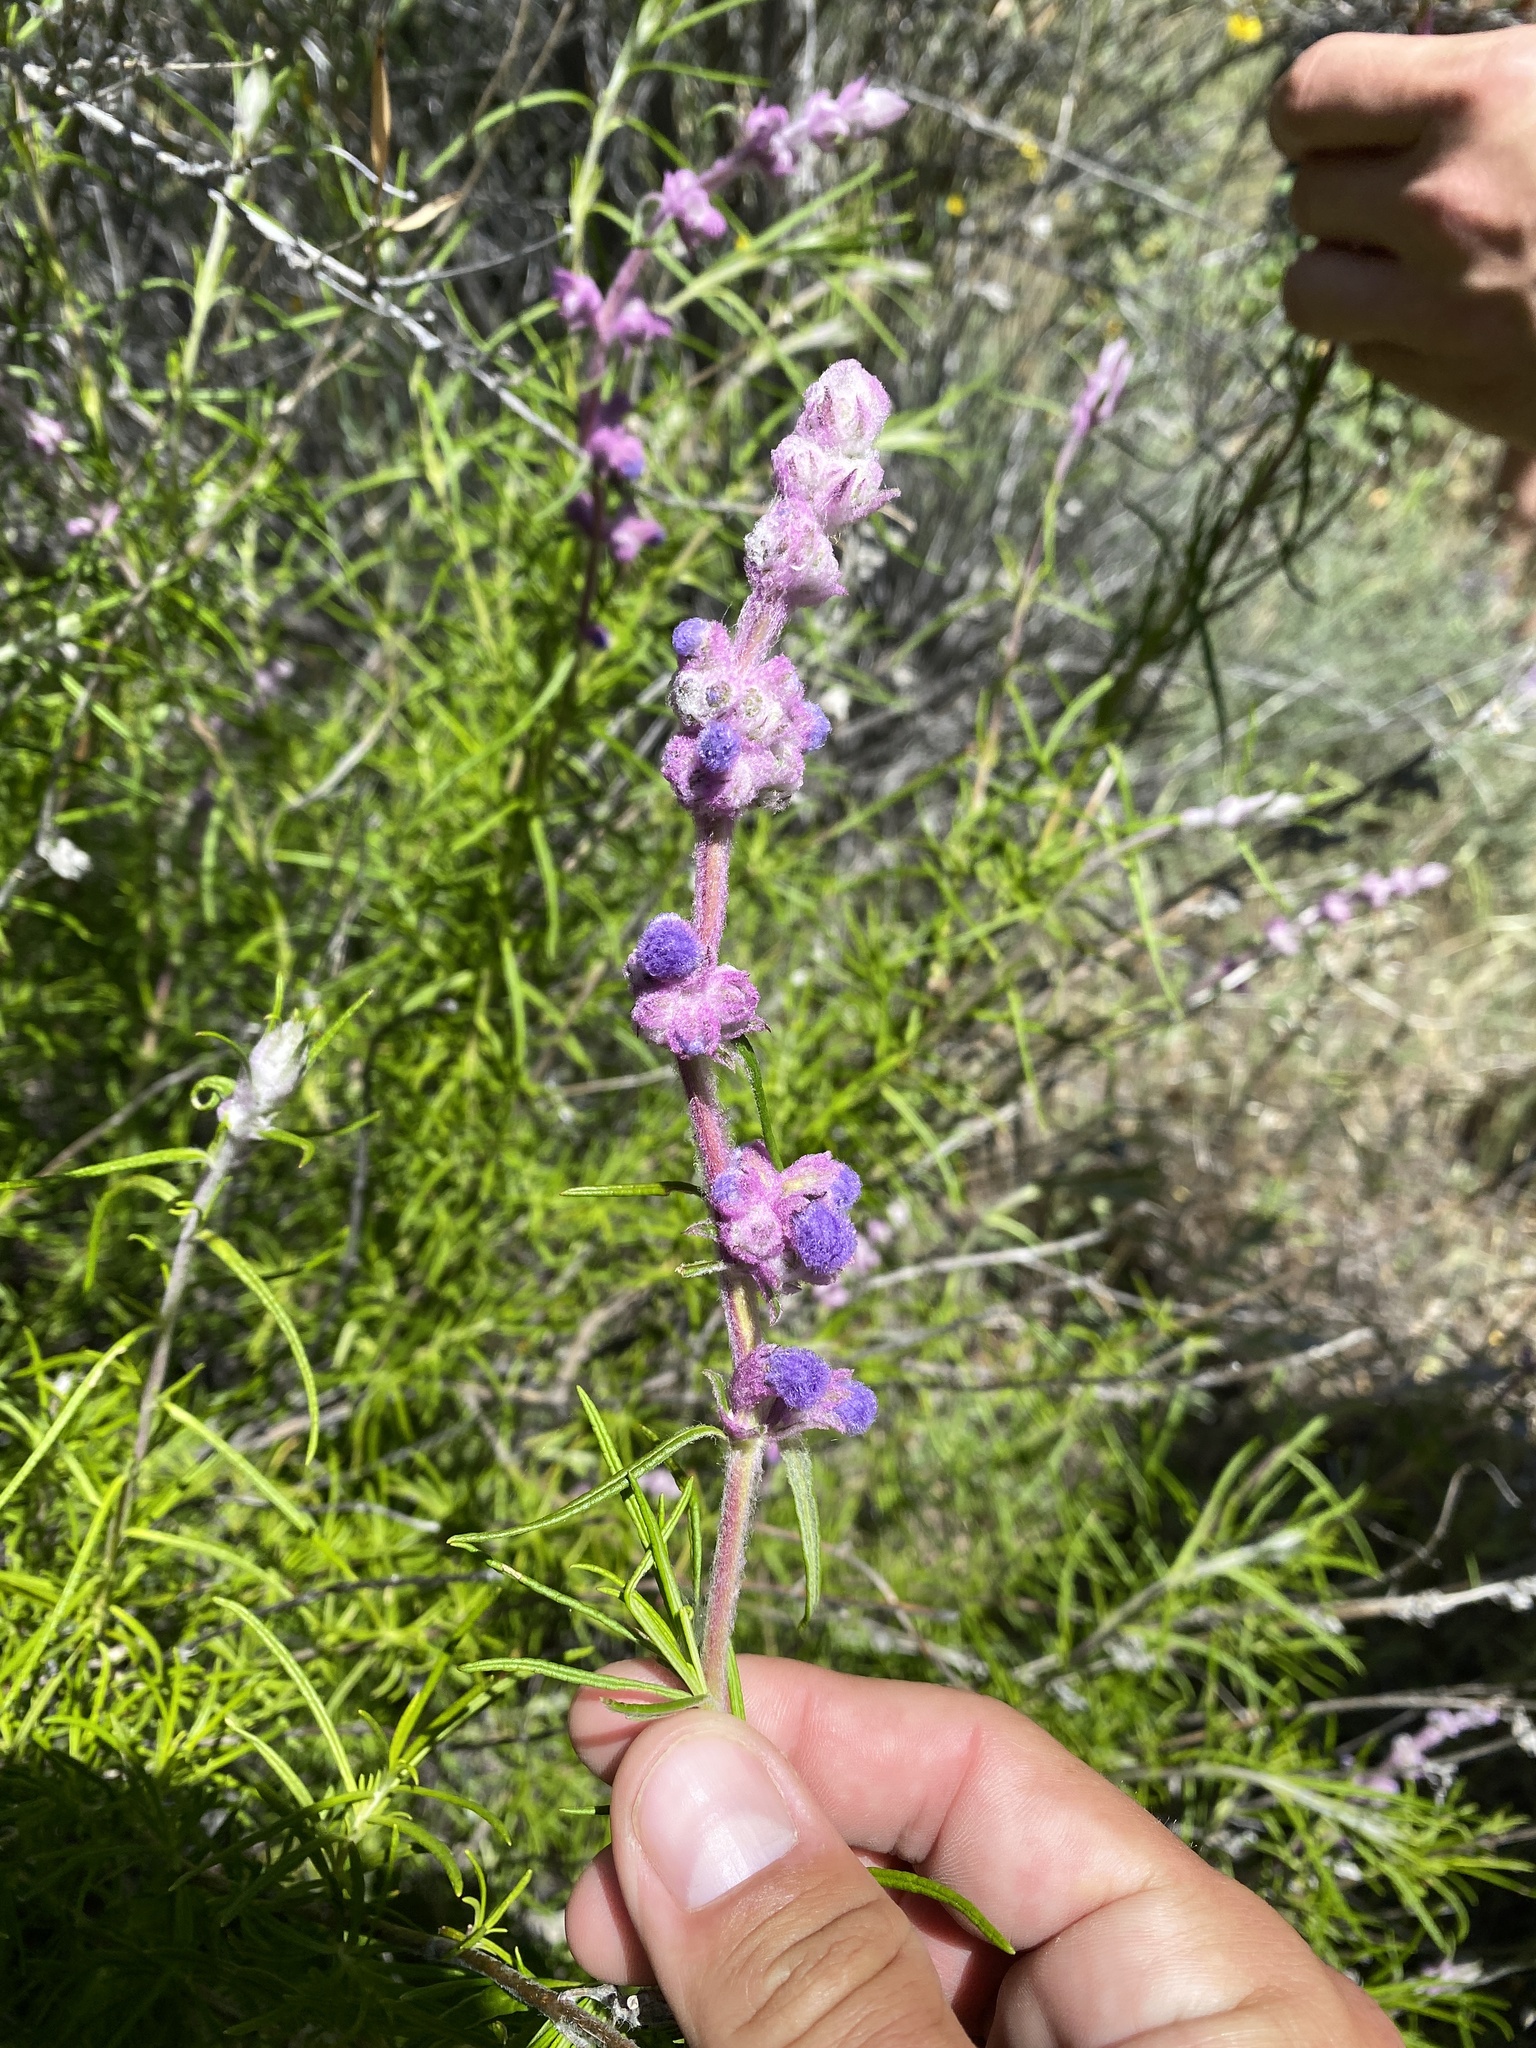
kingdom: Plantae
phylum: Tracheophyta
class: Magnoliopsida
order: Lamiales
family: Lamiaceae
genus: Trichostema
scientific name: Trichostema lanatum
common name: Woolly bluecurls
